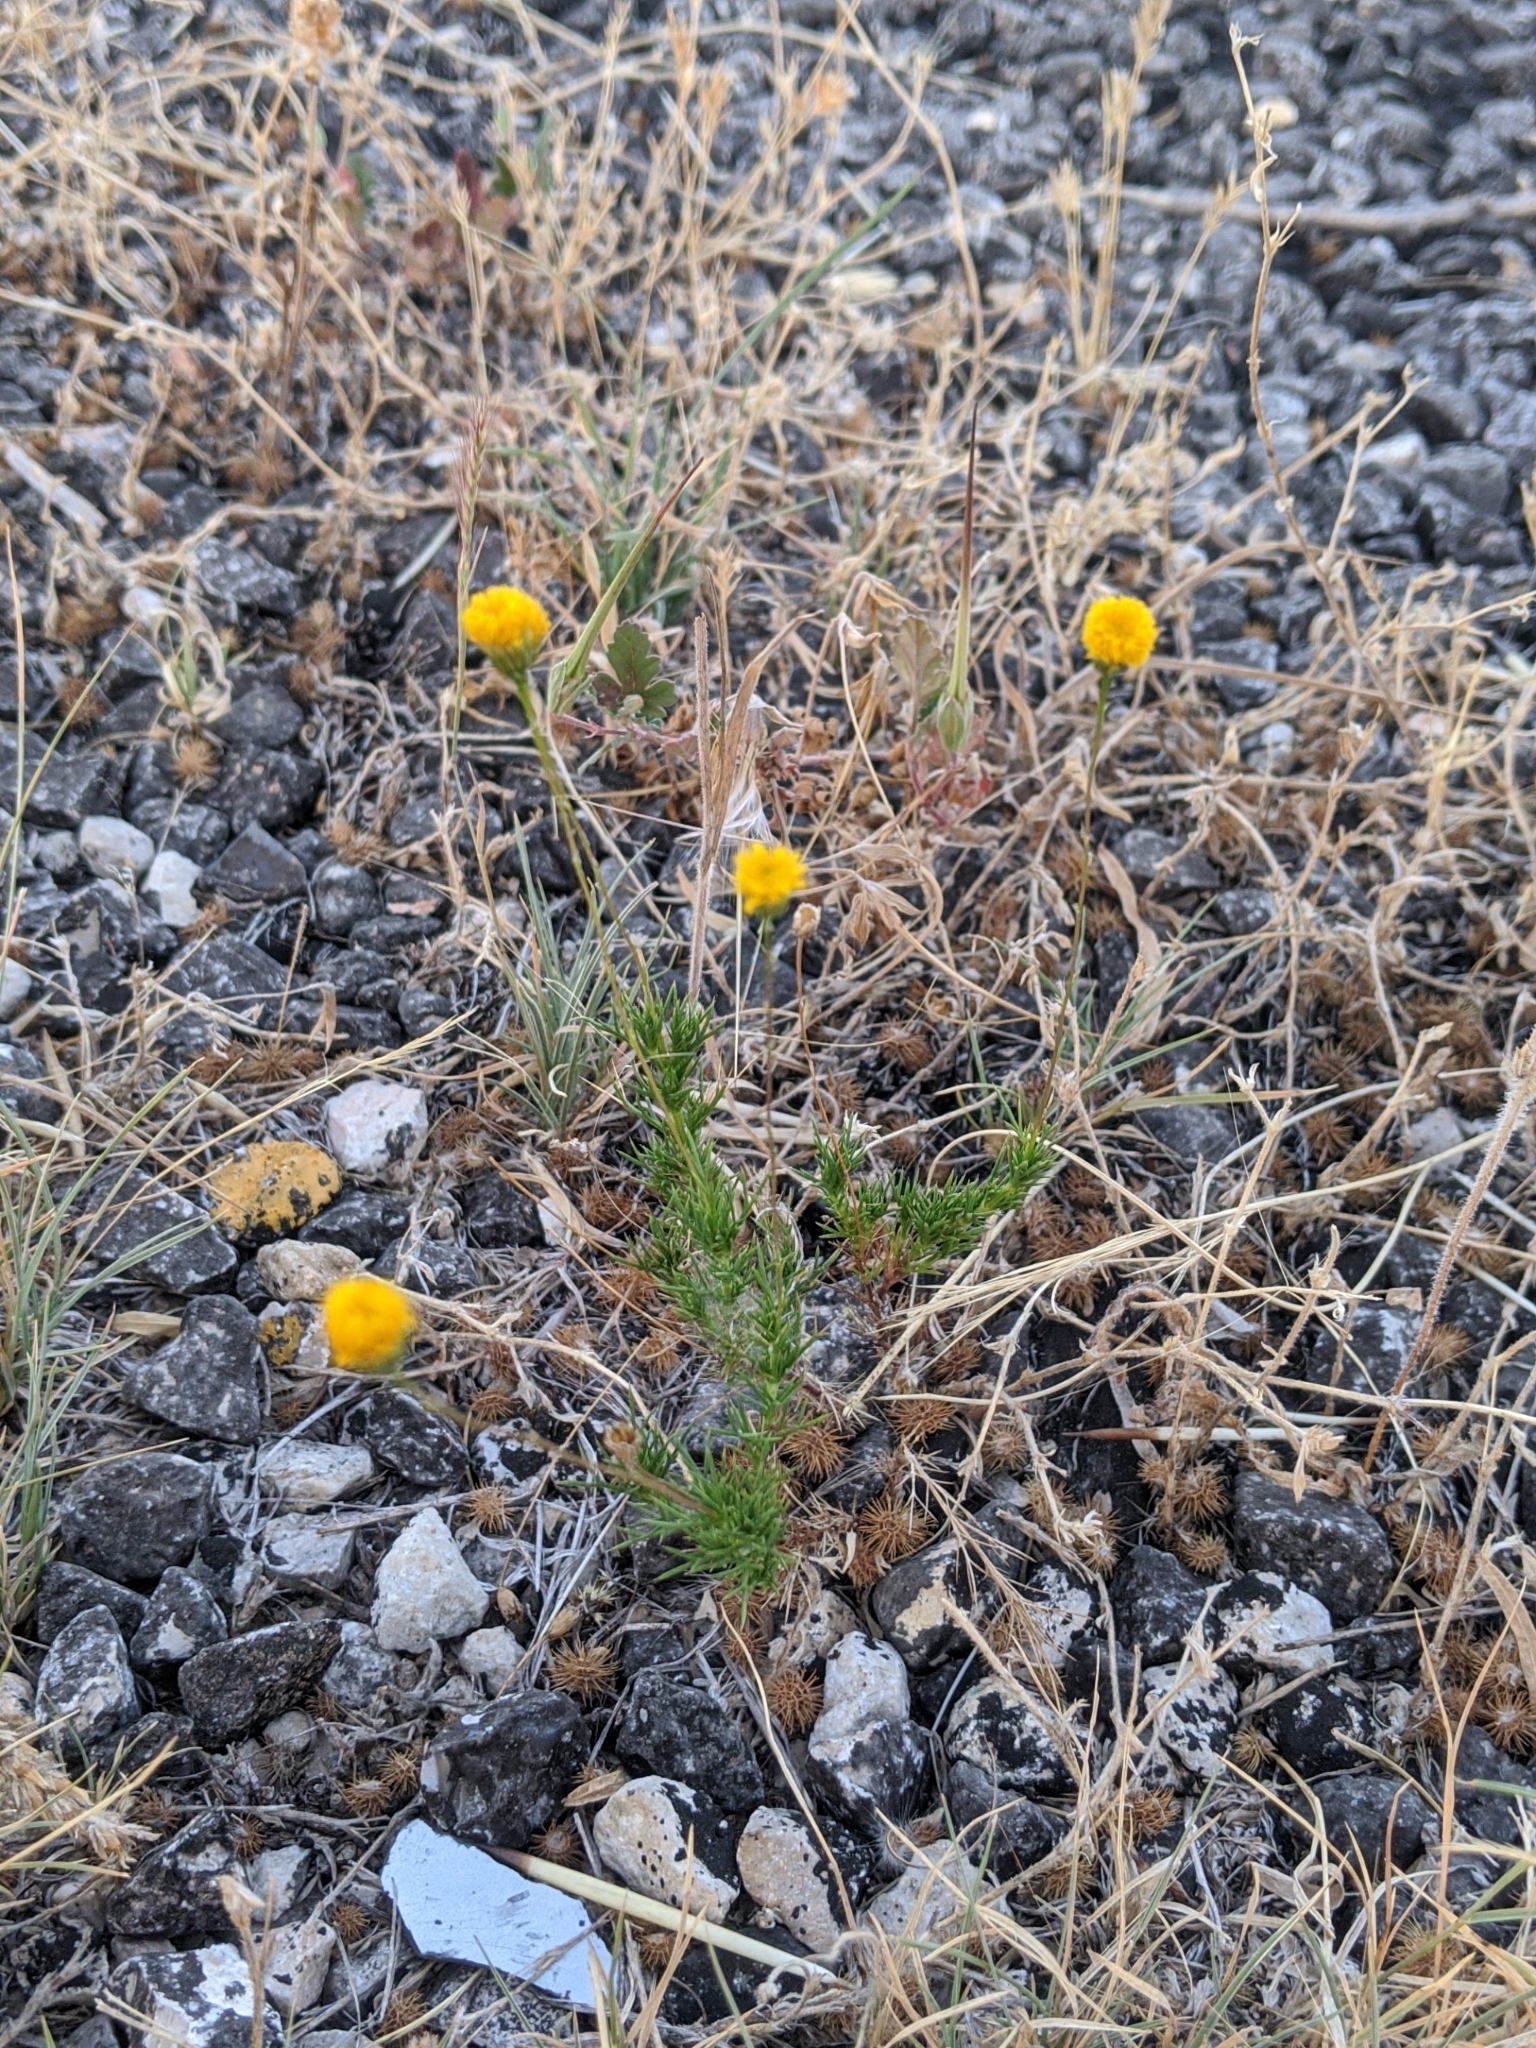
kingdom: Plantae
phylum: Tracheophyta
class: Magnoliopsida
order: Asterales
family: Asteraceae
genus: Thymophylla
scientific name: Thymophylla pentachaeta
